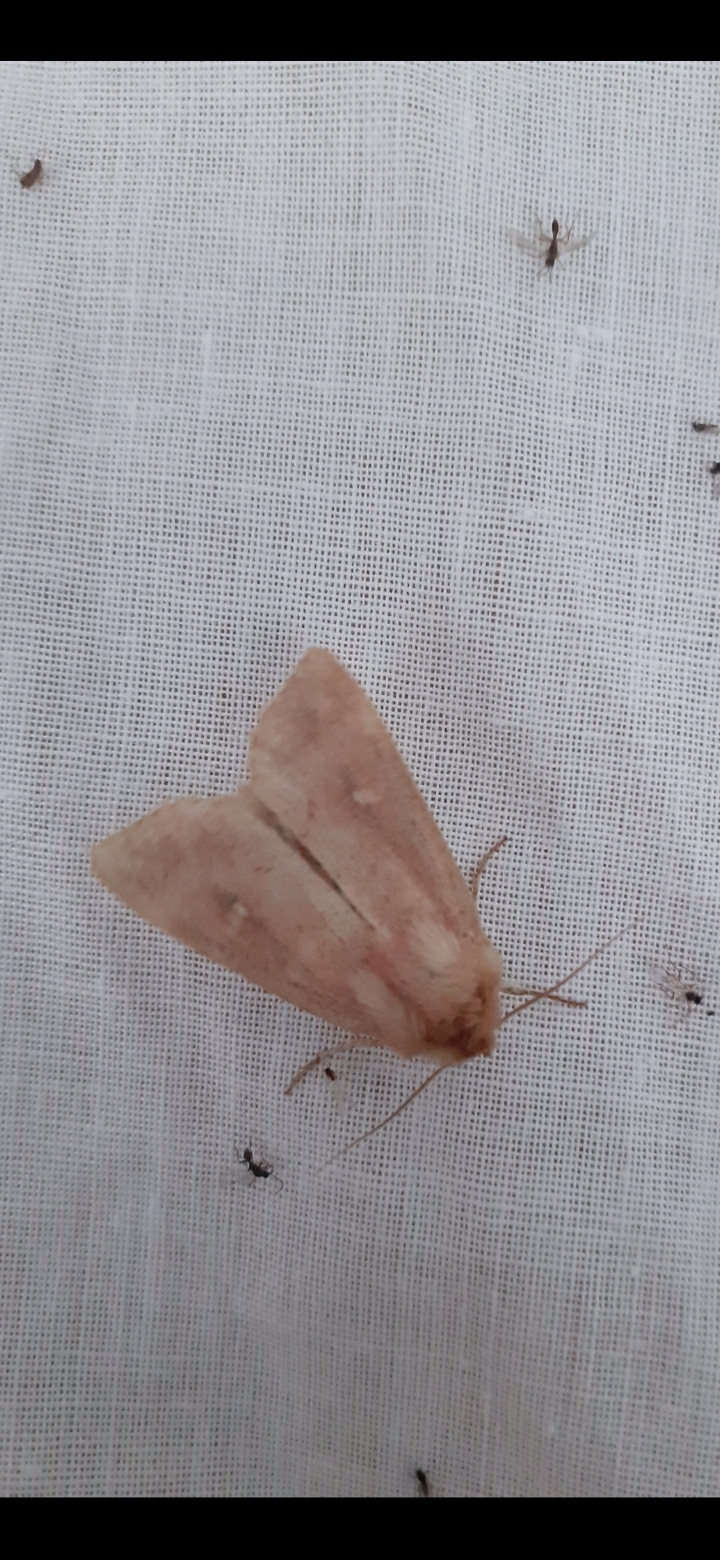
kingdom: Animalia
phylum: Arthropoda
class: Insecta
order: Lepidoptera
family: Noctuidae
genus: Mythimna
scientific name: Mythimna ferrago
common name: Clay
